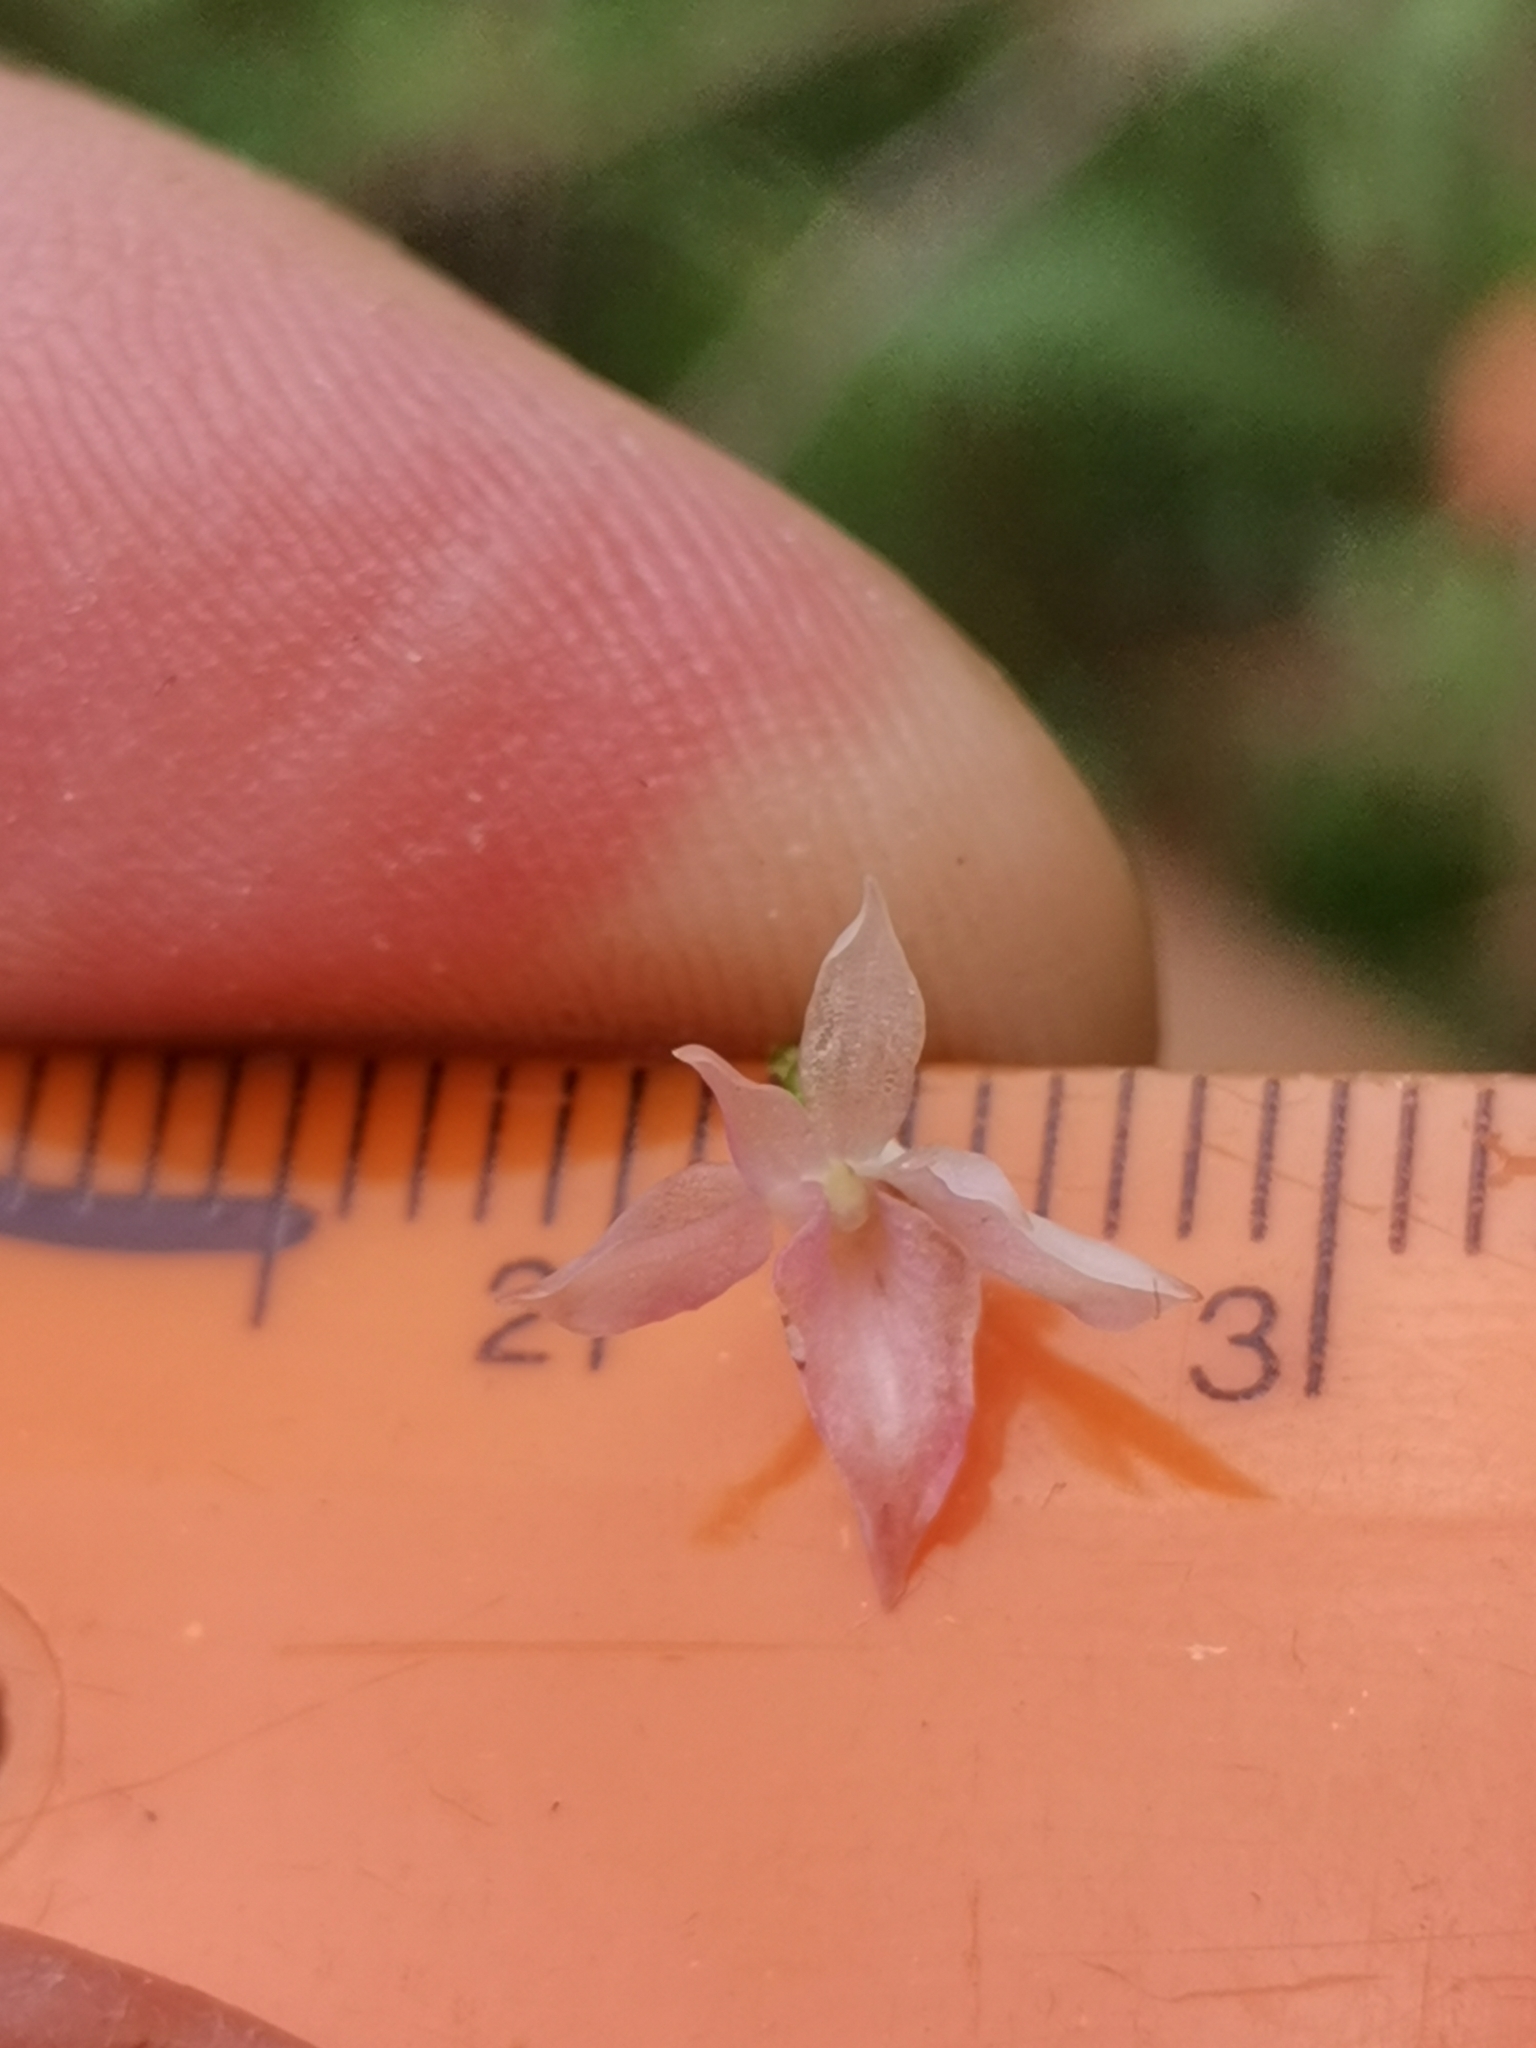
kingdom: Plantae
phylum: Tracheophyta
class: Liliopsida
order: Asparagales
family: Orchidaceae
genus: Gymnadenia
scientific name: Gymnadenia lithopolitanica
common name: Austrian gymnadenia
